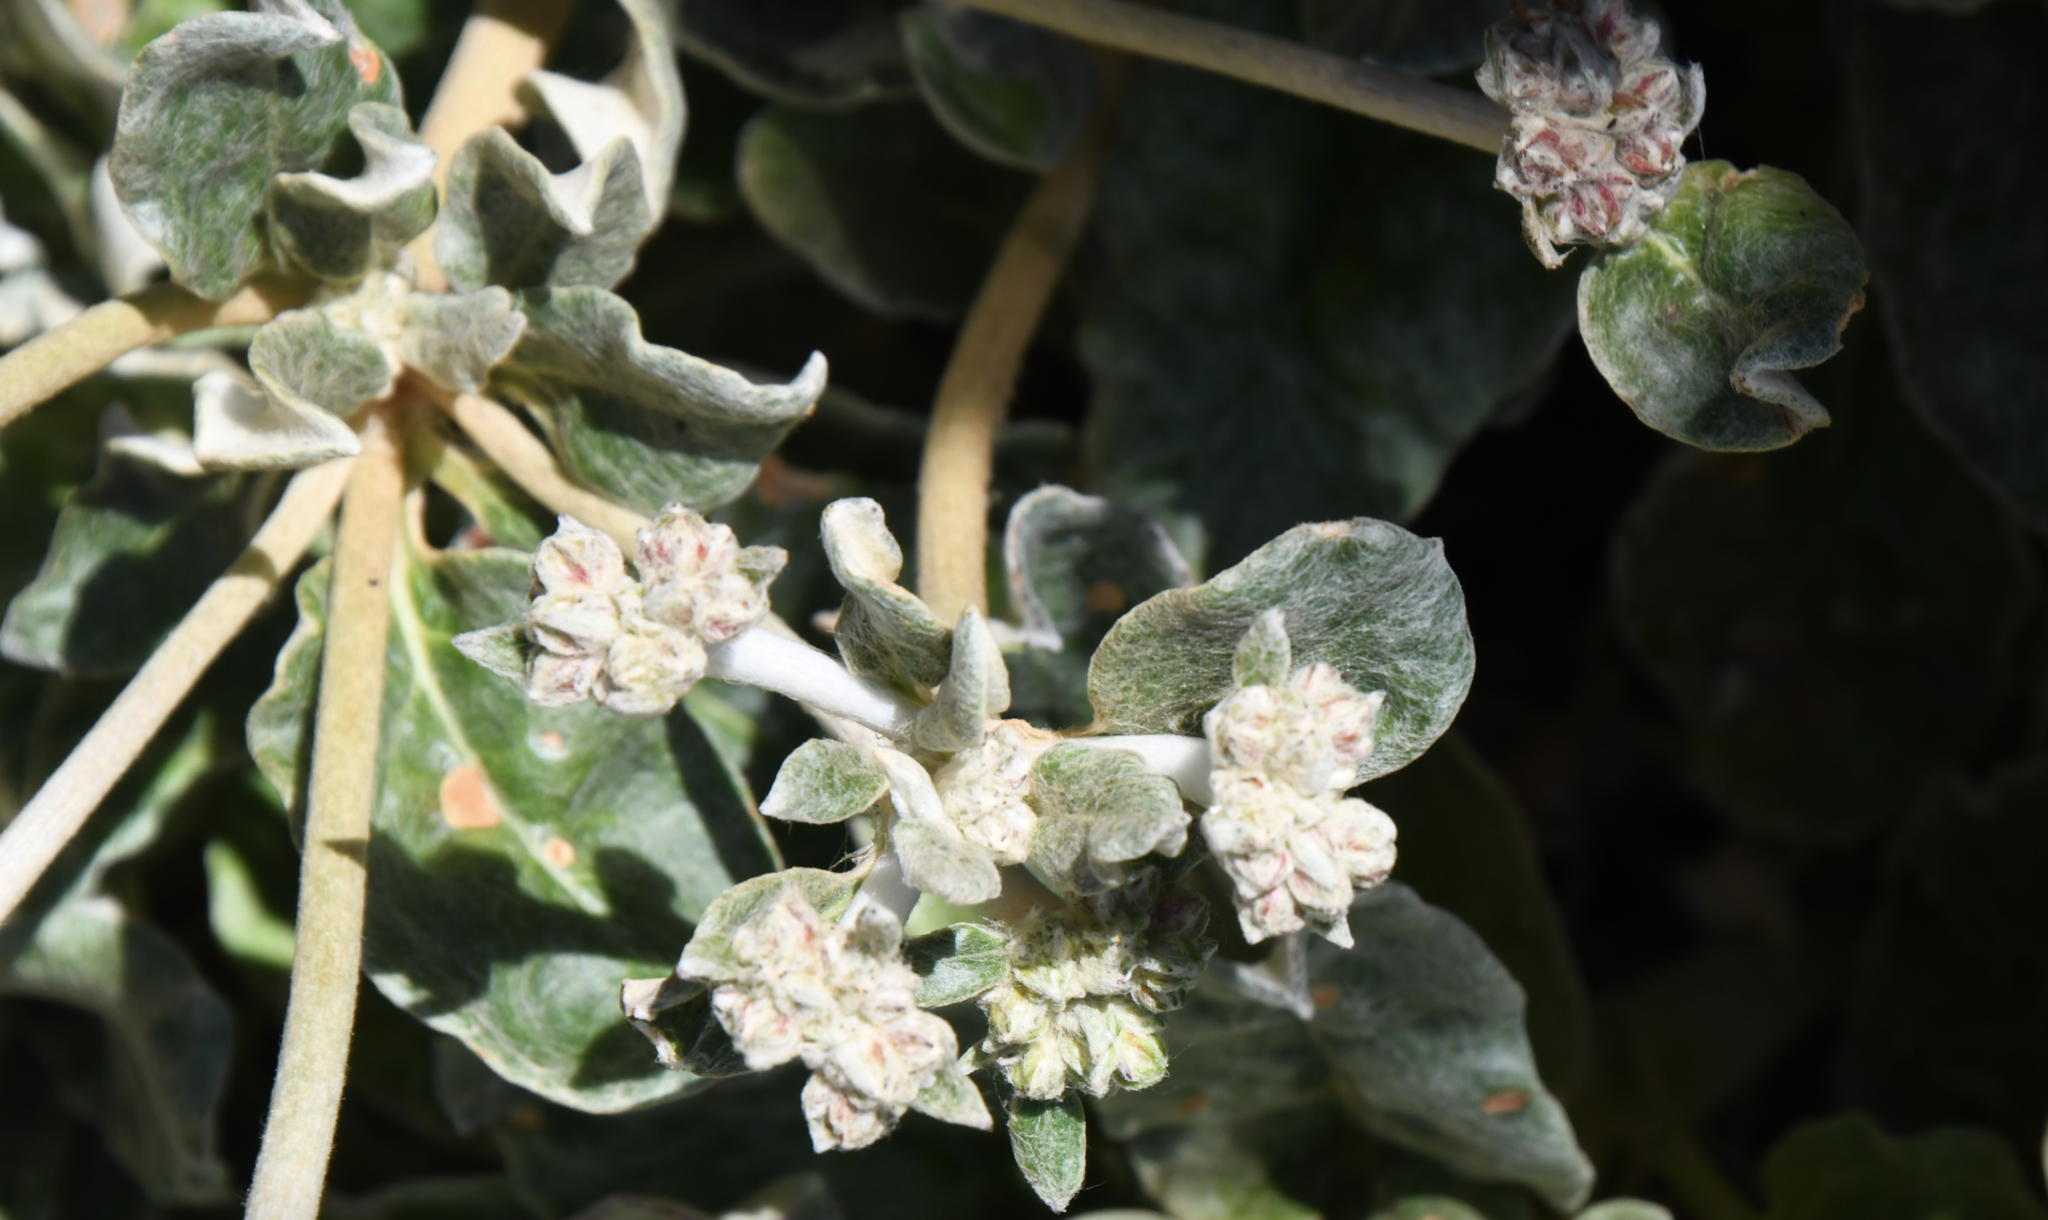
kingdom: Plantae
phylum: Tracheophyta
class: Magnoliopsida
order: Caryophyllales
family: Polygonaceae
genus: Eriogonum
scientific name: Eriogonum latifolium
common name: Seaside wild buckwheat
